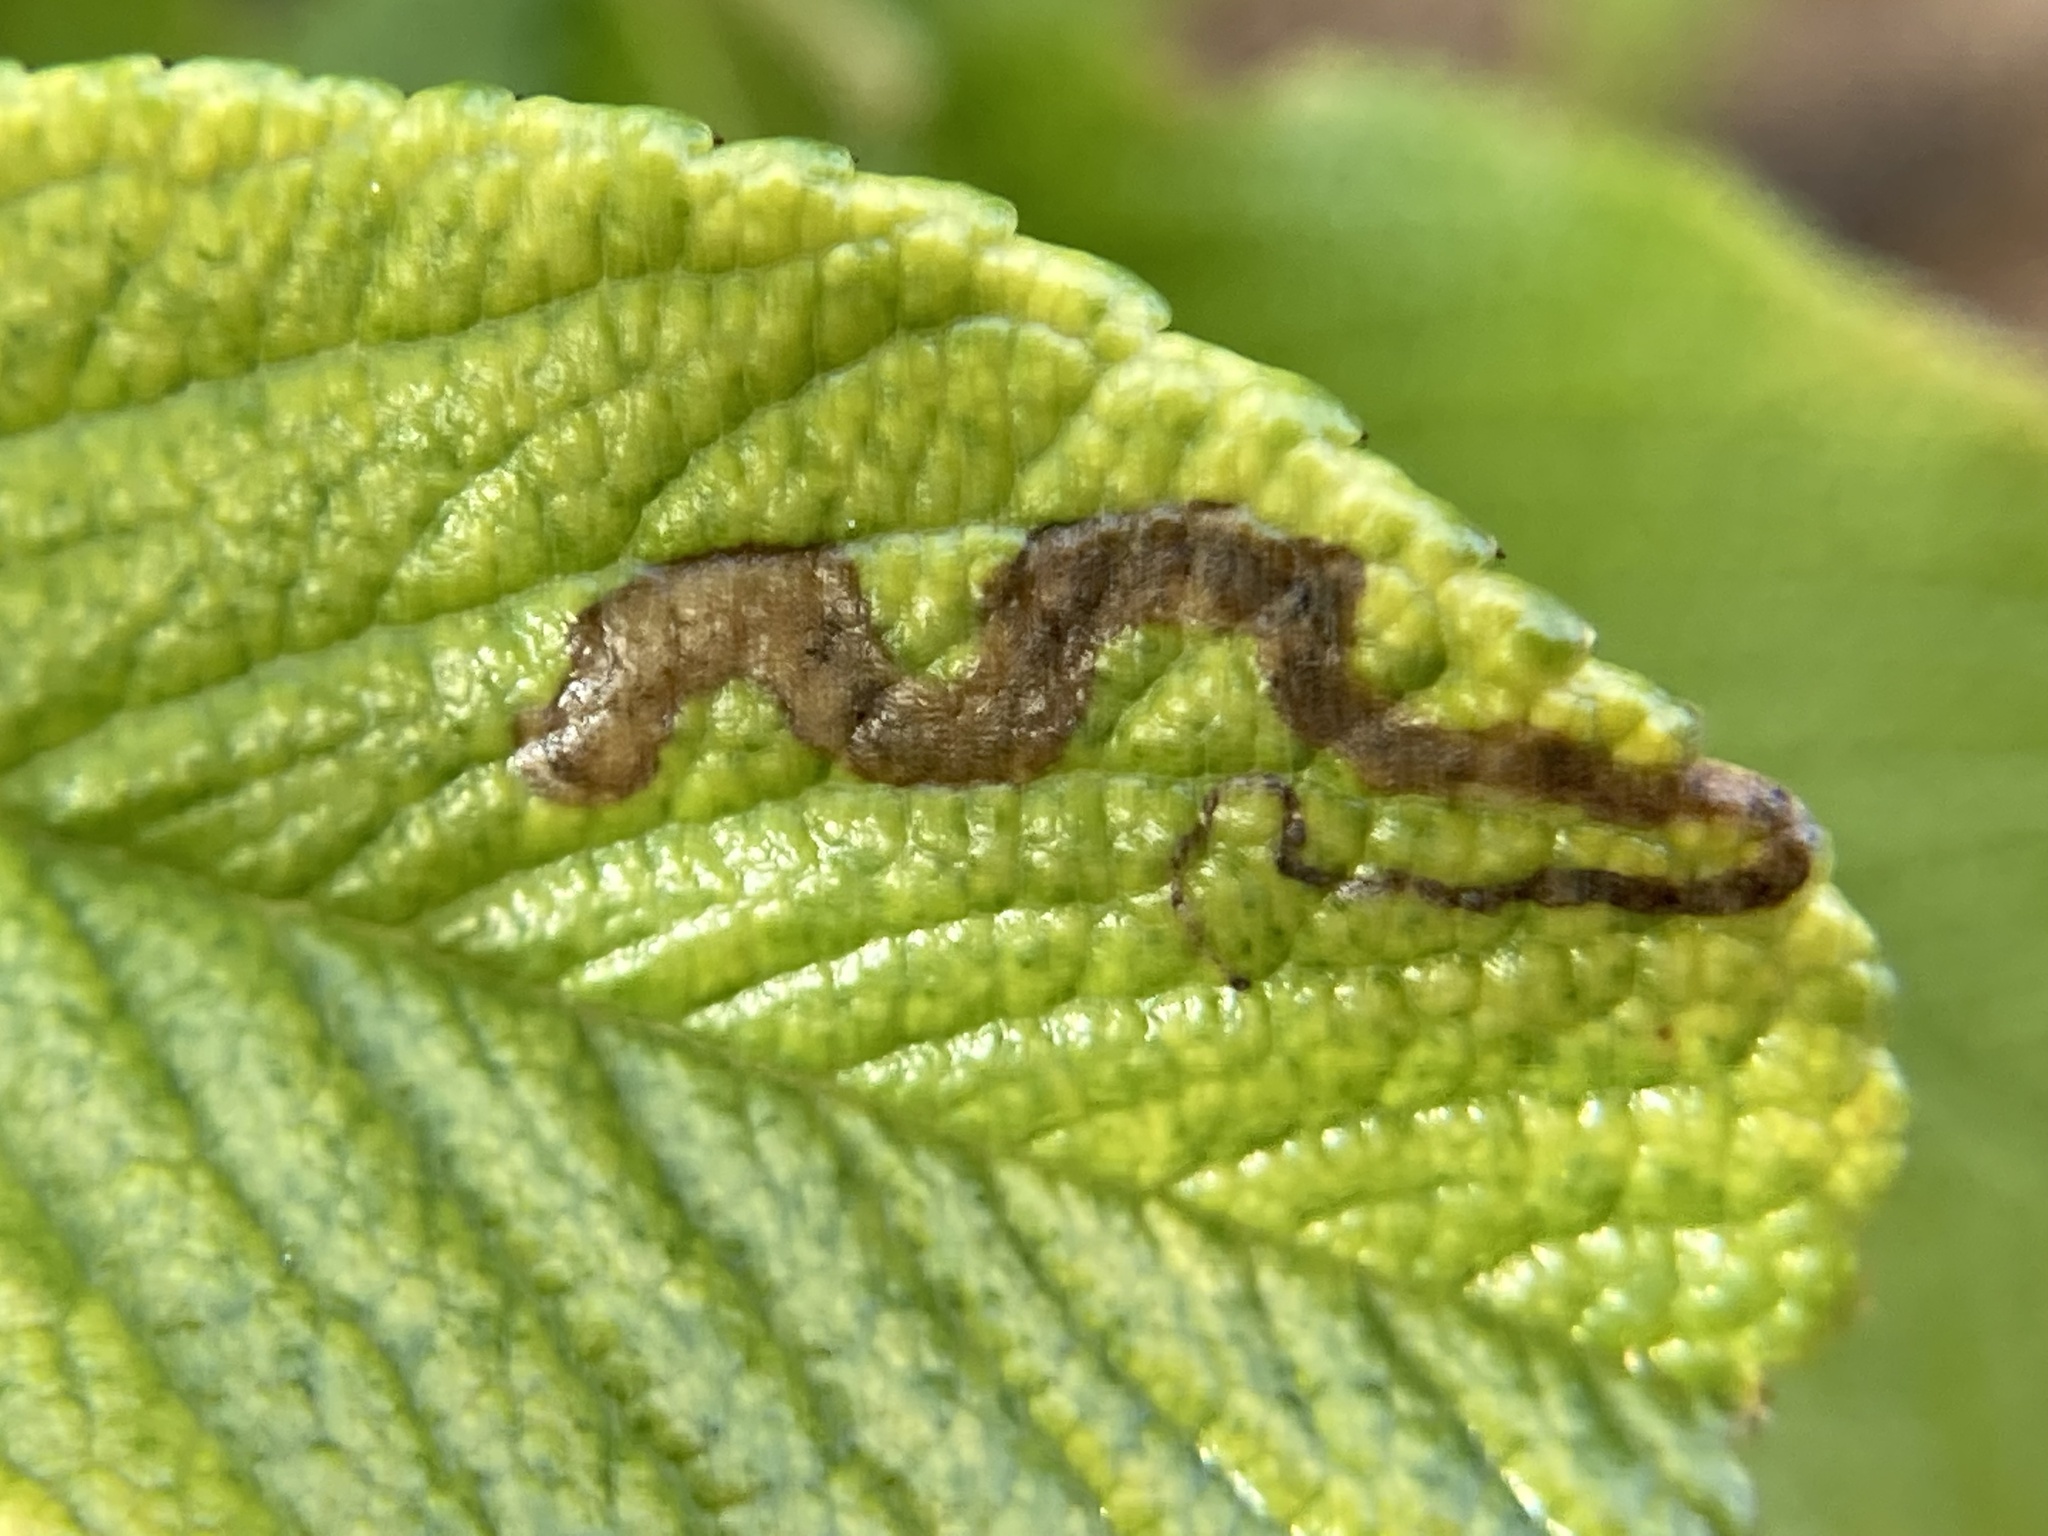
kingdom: Animalia
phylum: Arthropoda
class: Insecta
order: Lepidoptera
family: Nepticulidae
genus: Stigmella
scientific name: Stigmella
